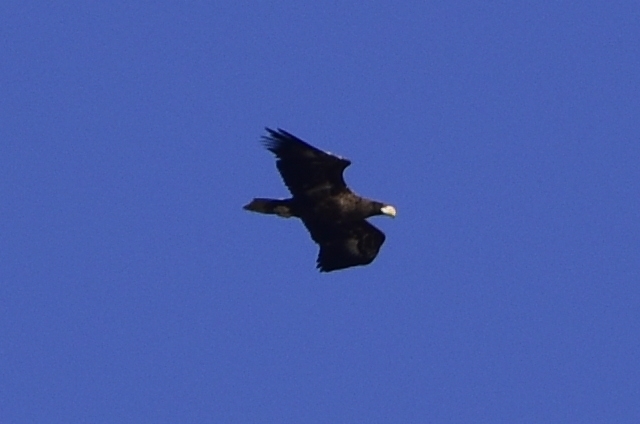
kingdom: Animalia
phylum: Chordata
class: Aves
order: Accipitriformes
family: Accipitridae
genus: Haliaeetus
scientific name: Haliaeetus pelagicus
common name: Steller's sea eagle
